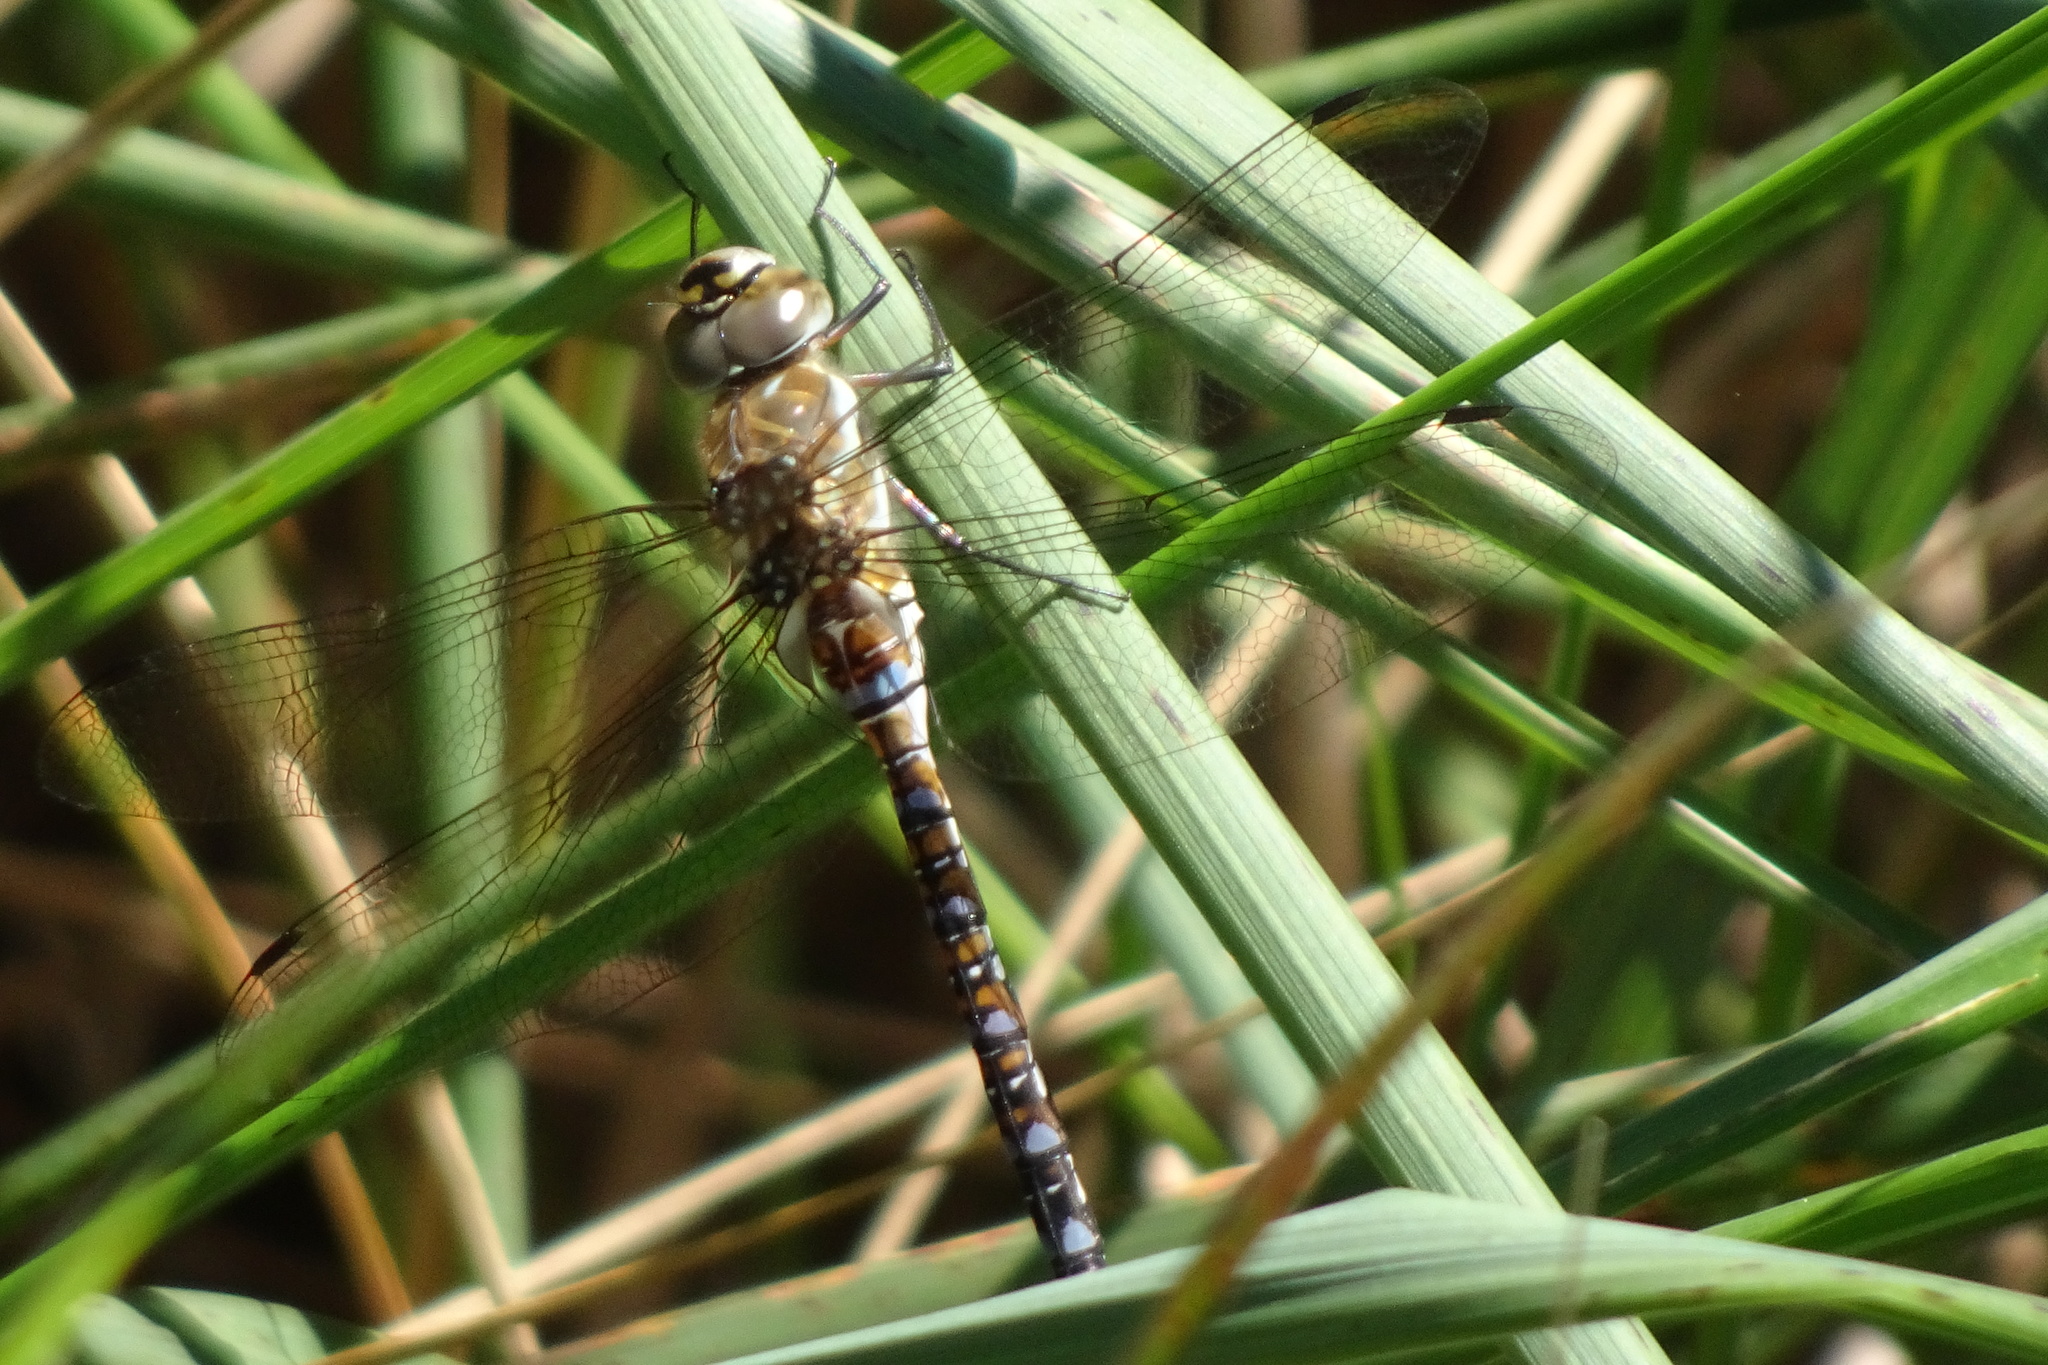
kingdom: Animalia
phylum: Arthropoda
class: Insecta
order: Odonata
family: Aeshnidae
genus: Aeshna
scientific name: Aeshna mixta
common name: Migrant hawker
